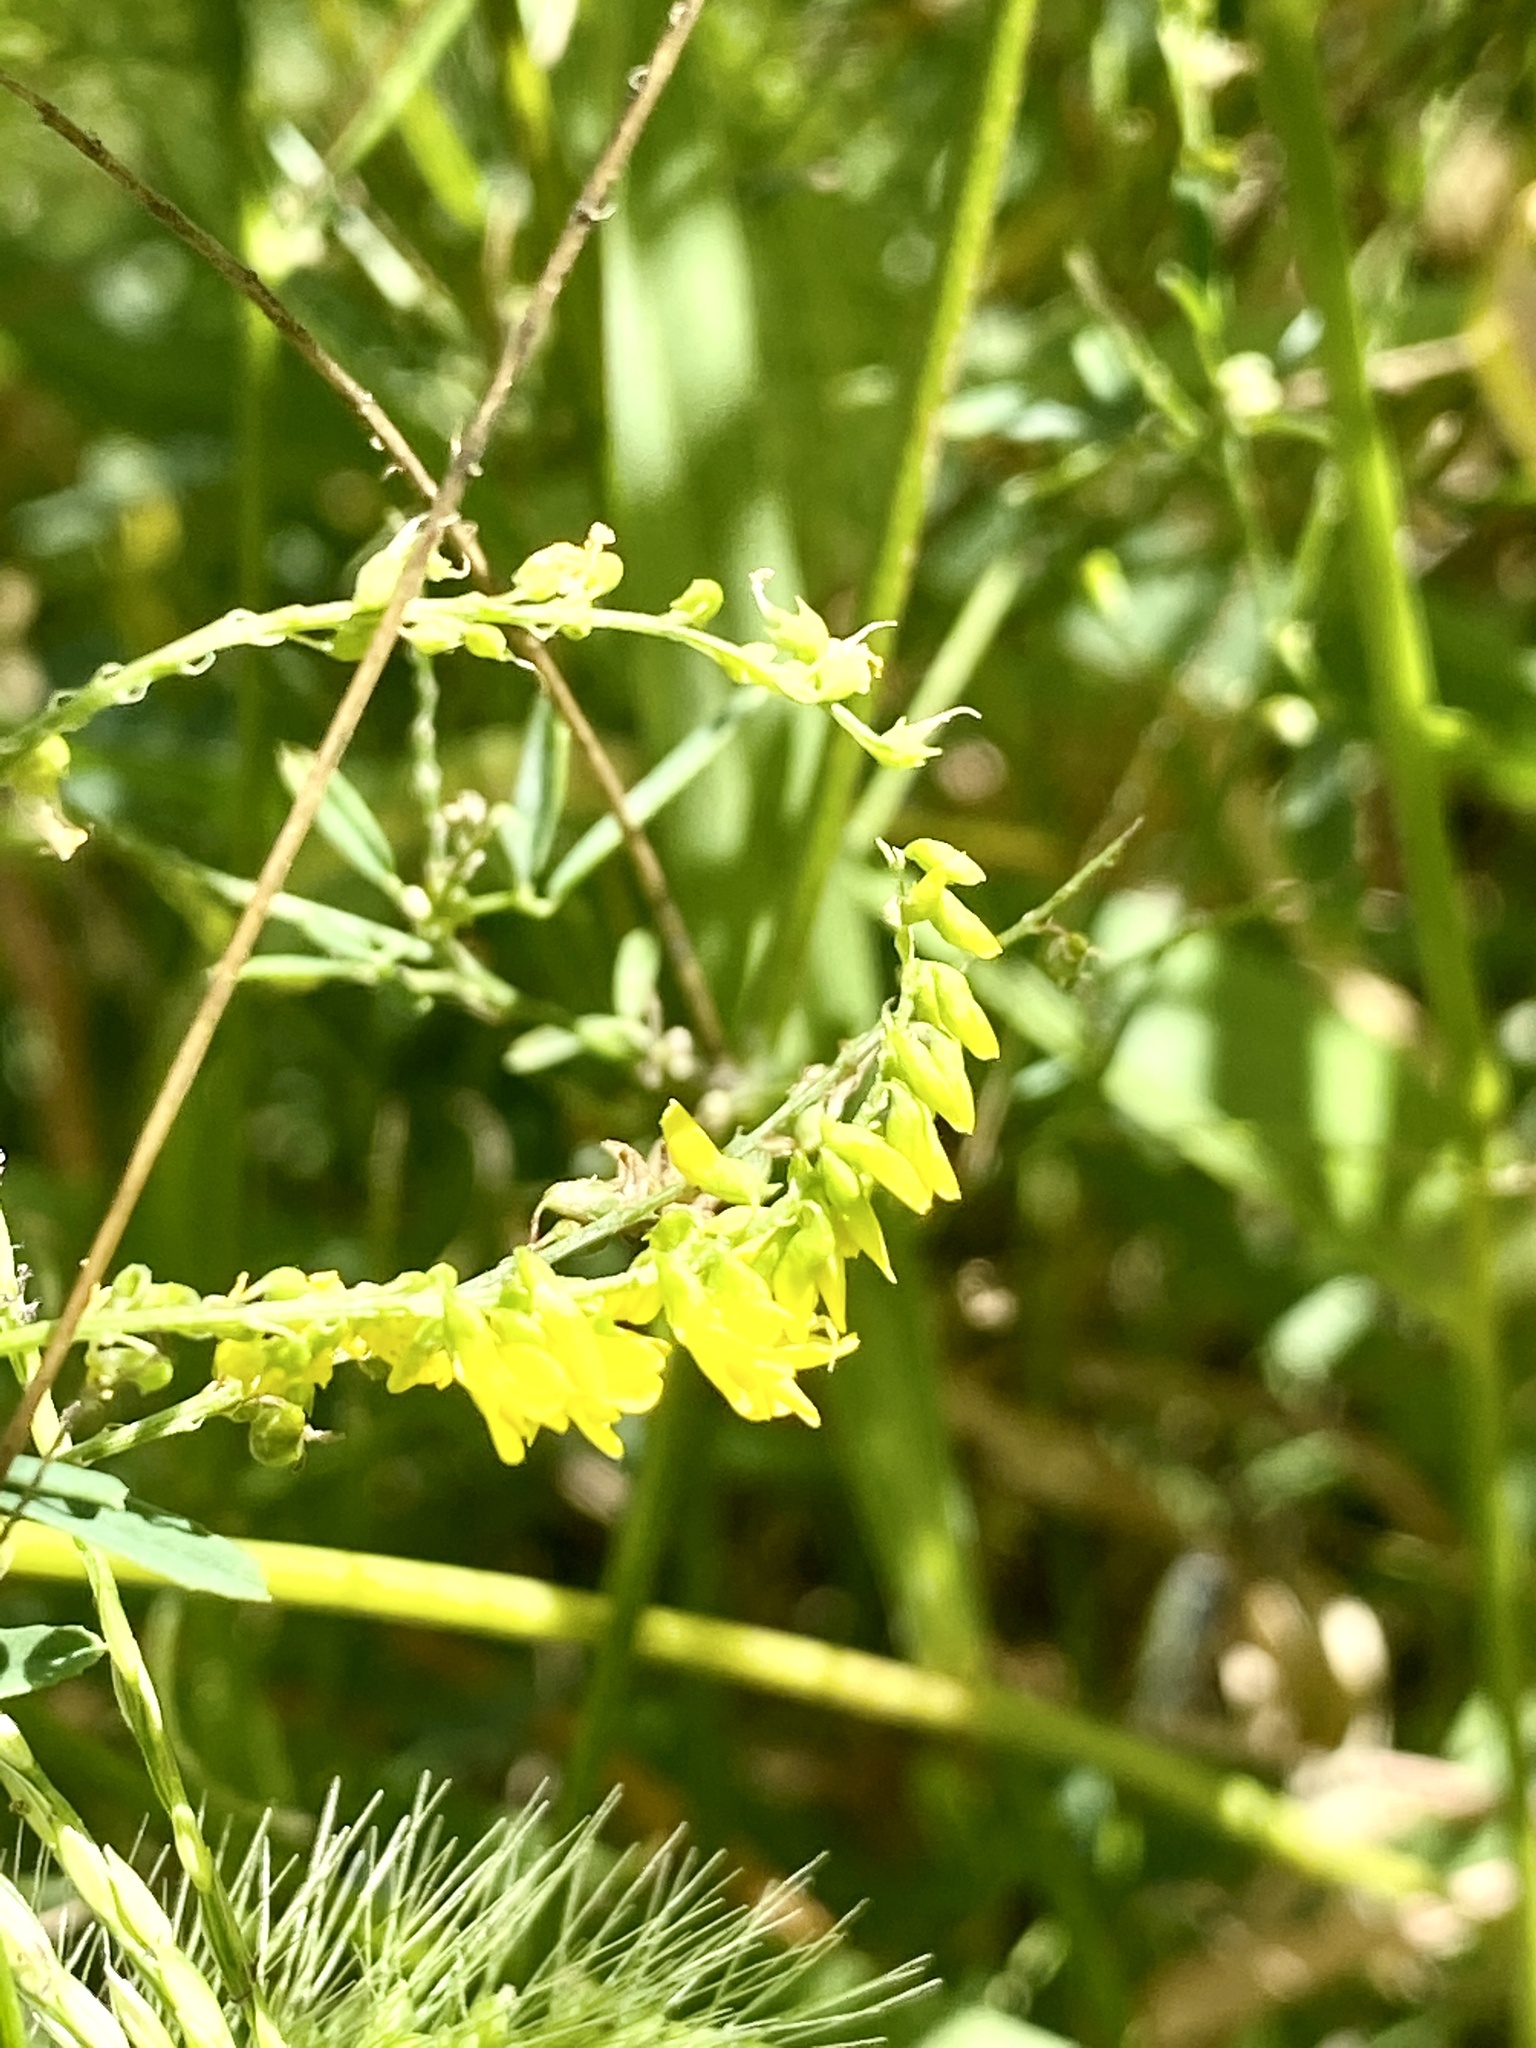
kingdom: Plantae
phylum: Tracheophyta
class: Magnoliopsida
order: Fabales
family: Fabaceae
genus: Melilotus
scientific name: Melilotus officinalis
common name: Sweetclover
